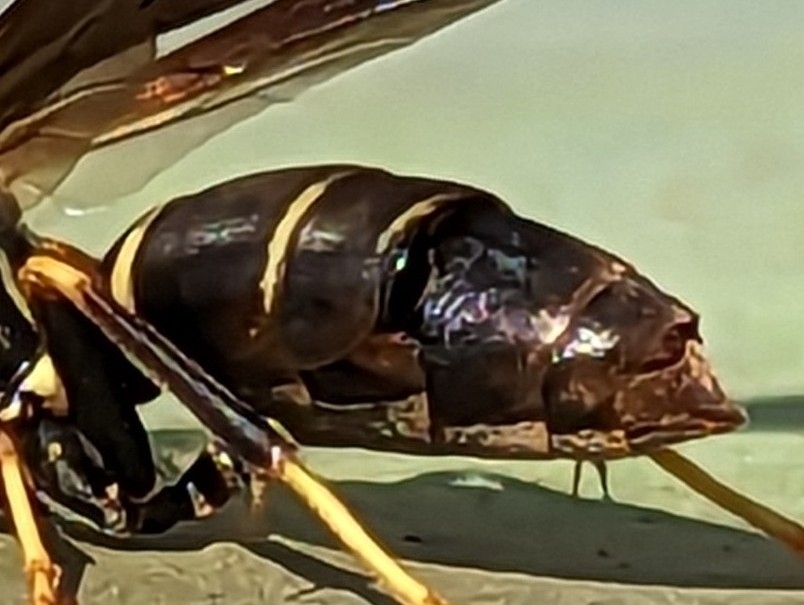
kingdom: Animalia
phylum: Arthropoda
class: Insecta
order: Strepsiptera
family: Xenidae
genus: Xenos
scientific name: Xenos pecki
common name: Twisted wing parasite
